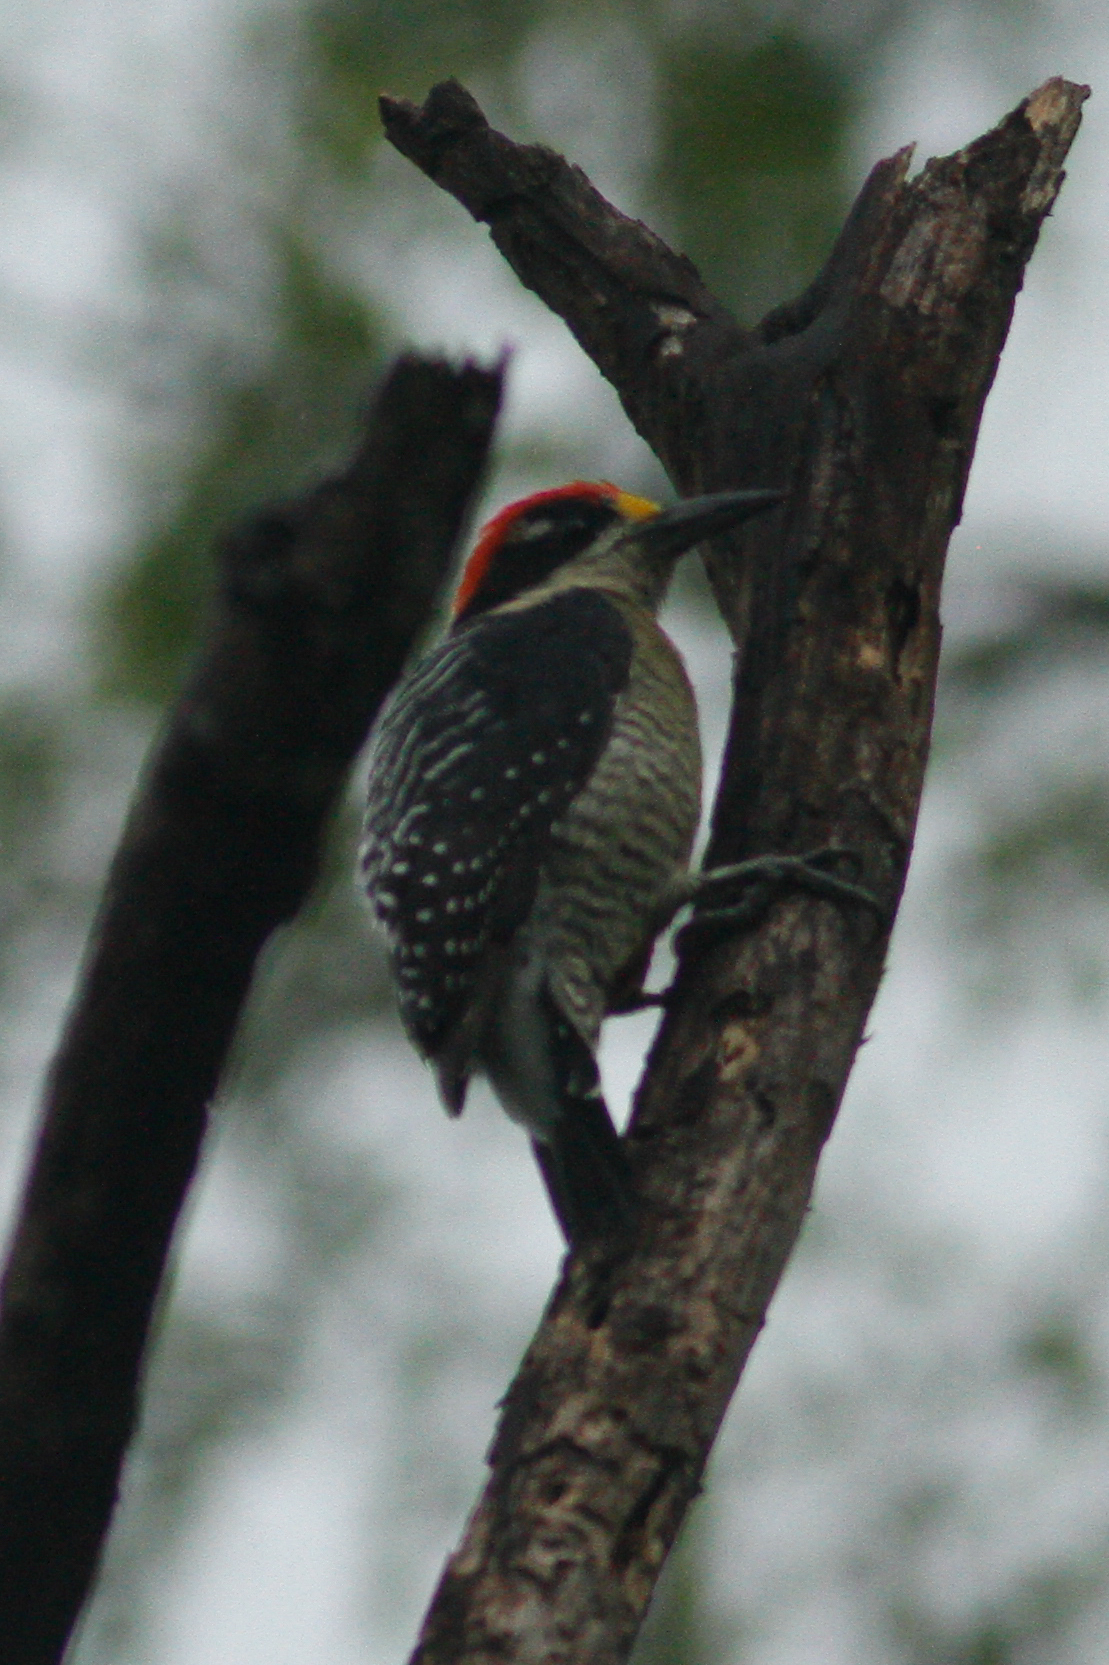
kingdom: Animalia
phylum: Chordata
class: Aves
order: Piciformes
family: Picidae
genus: Melanerpes
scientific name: Melanerpes pucherani
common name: Black-cheeked woodpecker
